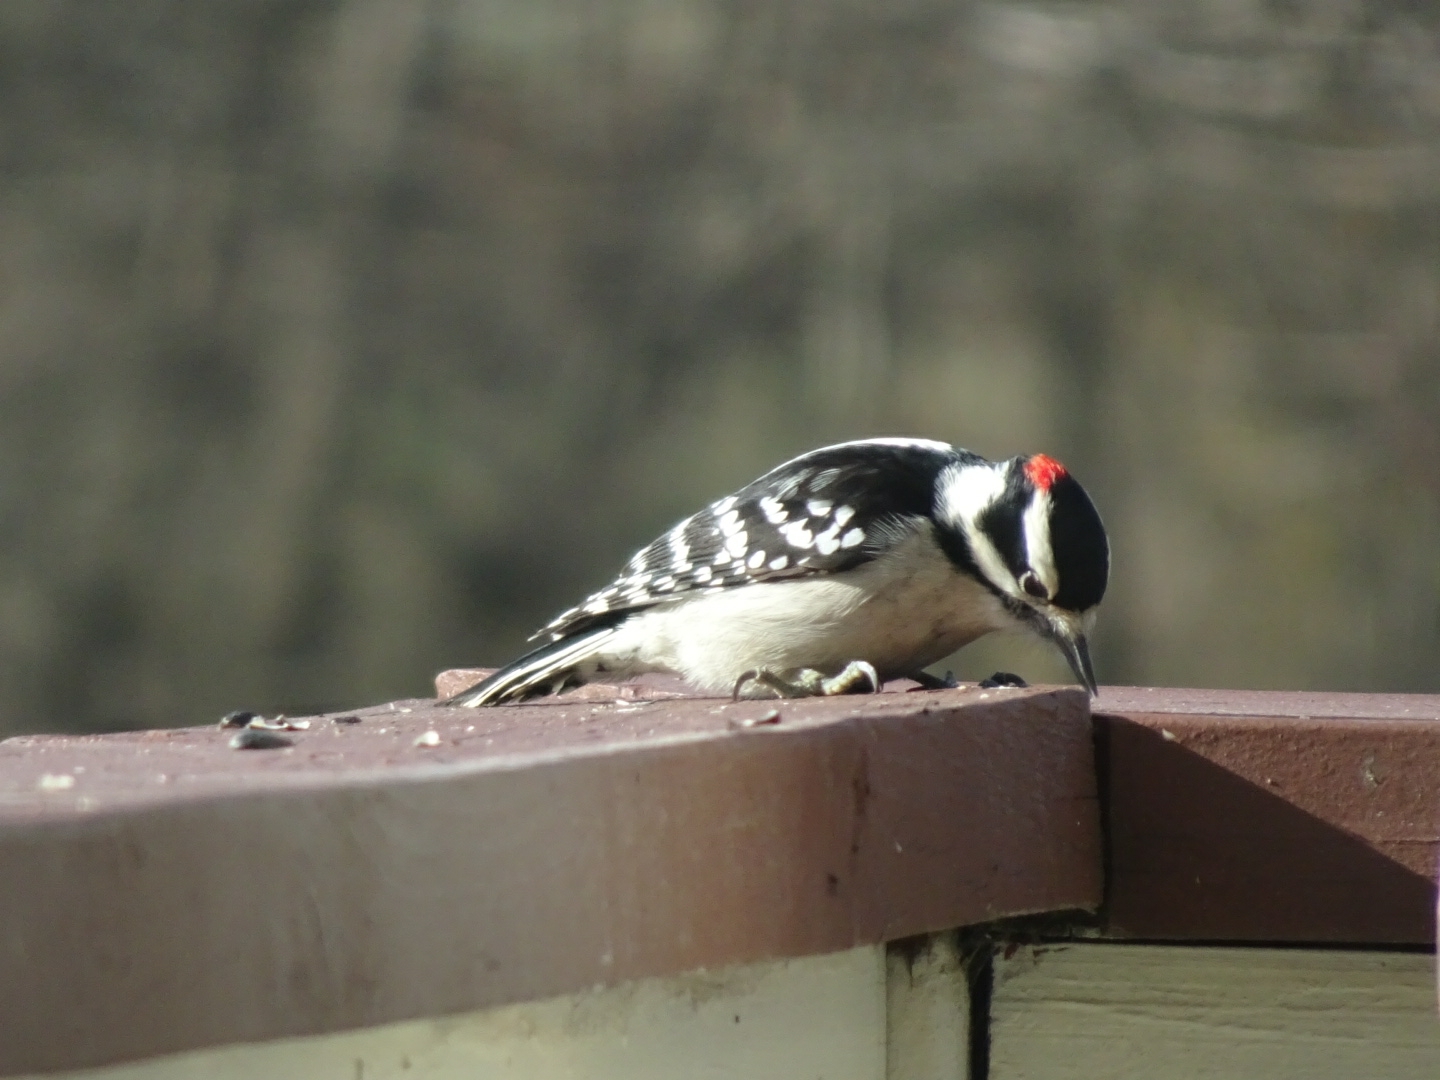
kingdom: Animalia
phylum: Chordata
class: Aves
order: Piciformes
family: Picidae
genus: Dryobates
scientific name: Dryobates pubescens
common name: Downy woodpecker
